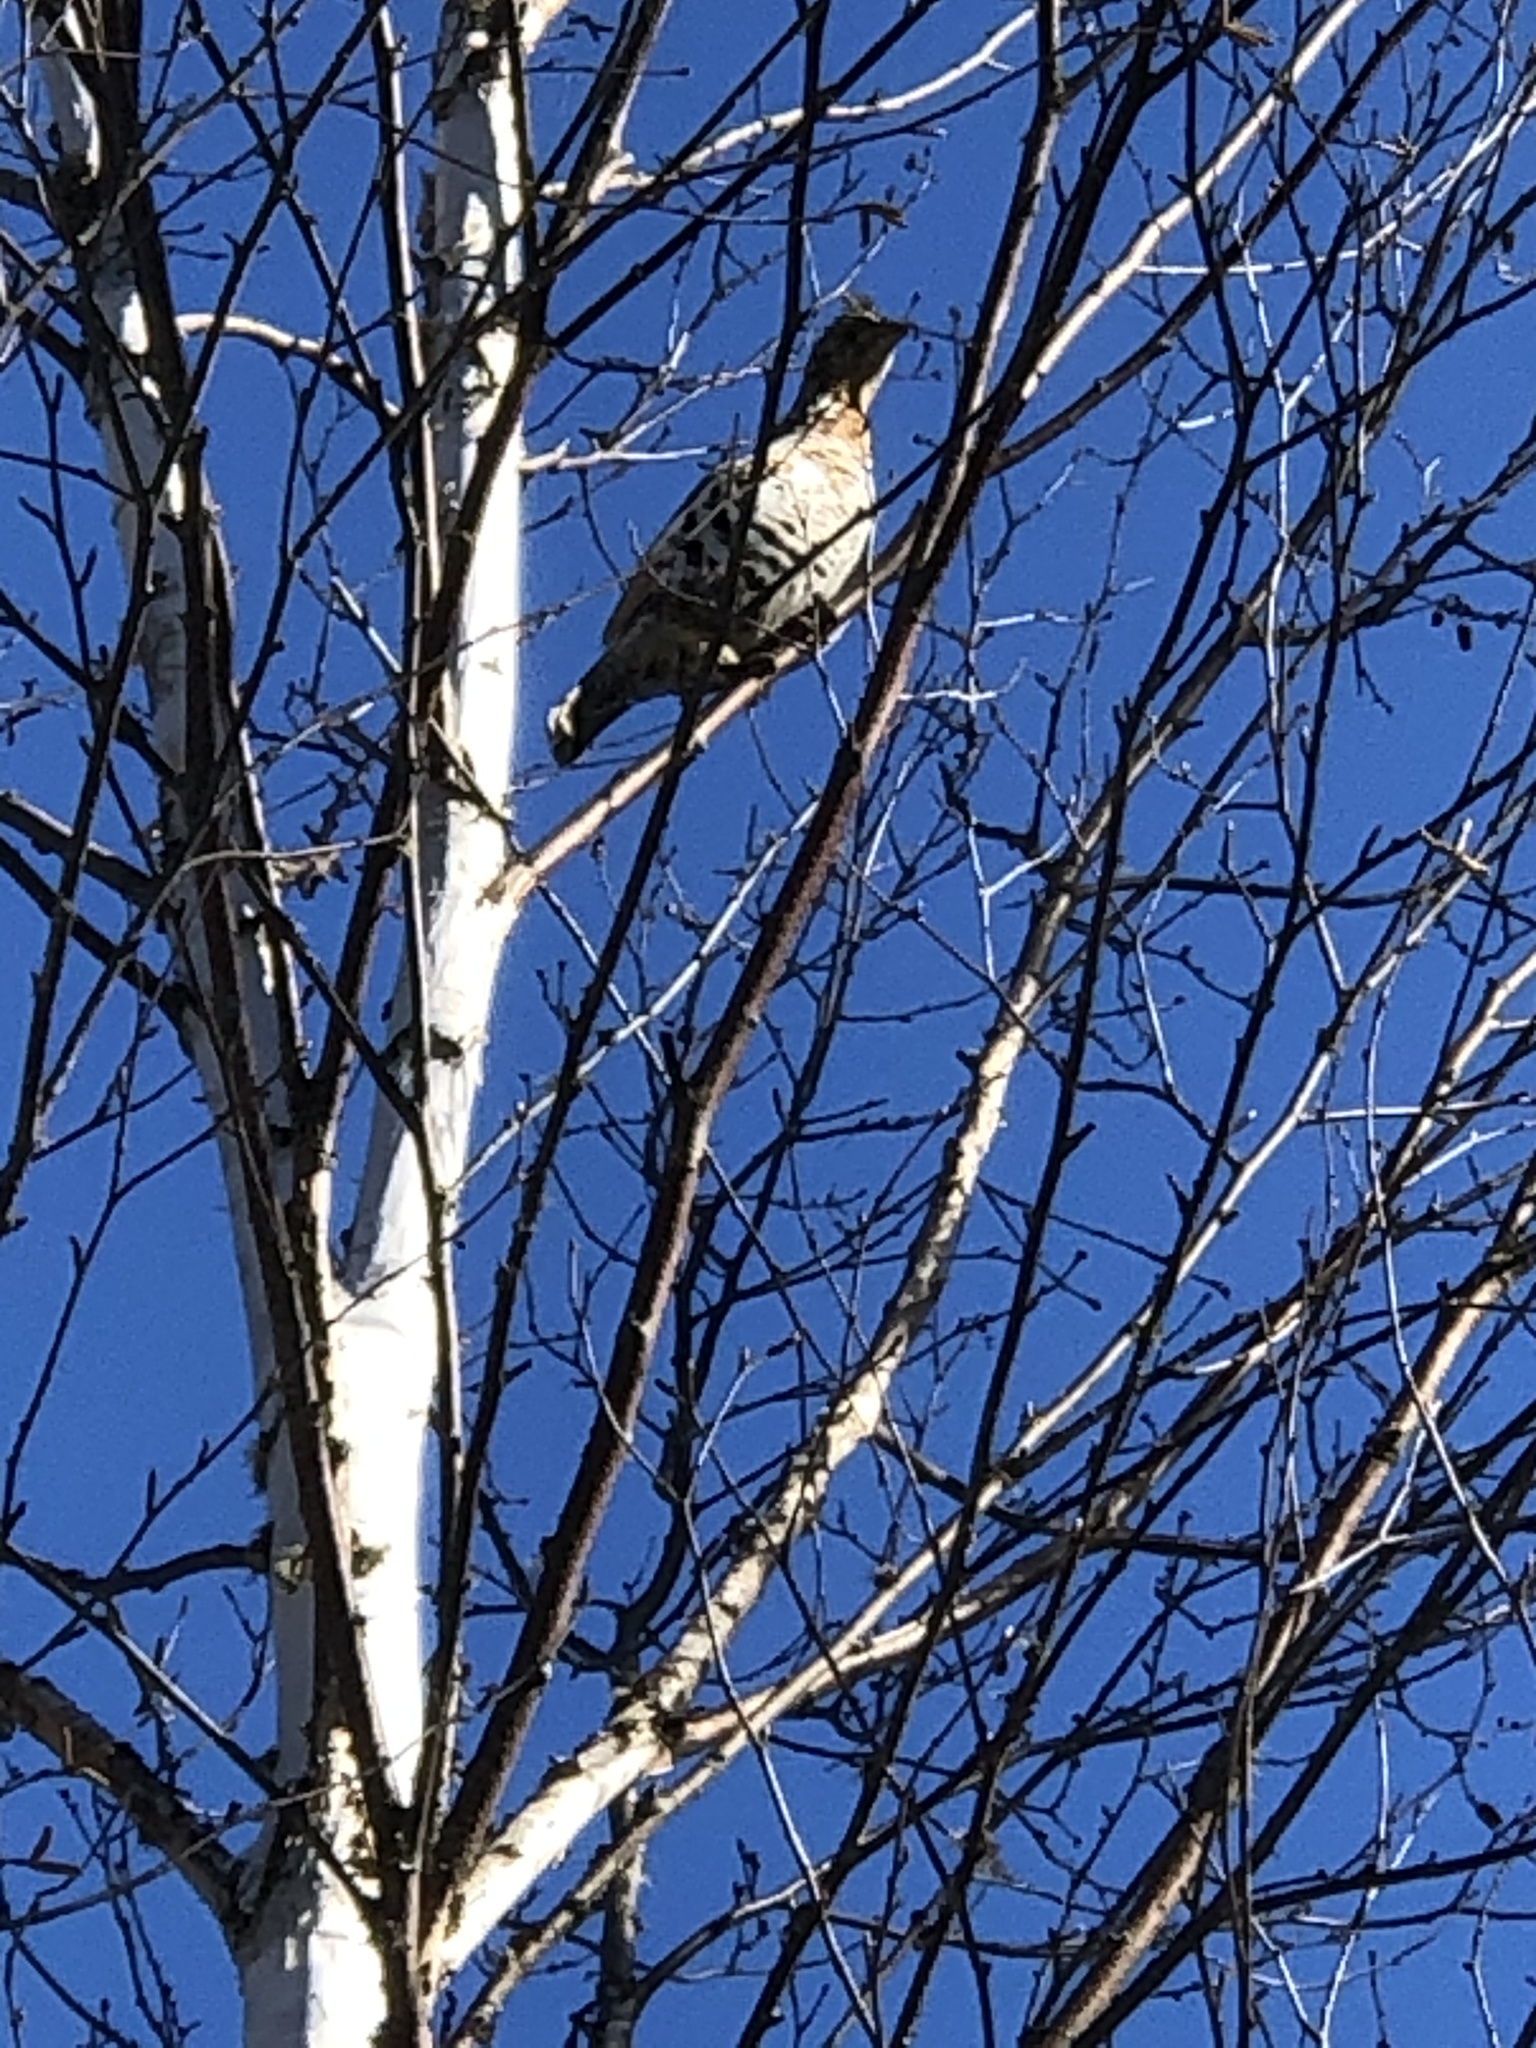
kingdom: Animalia
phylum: Chordata
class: Aves
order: Galliformes
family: Phasianidae
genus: Bonasa
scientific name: Bonasa umbellus
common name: Ruffed grouse
